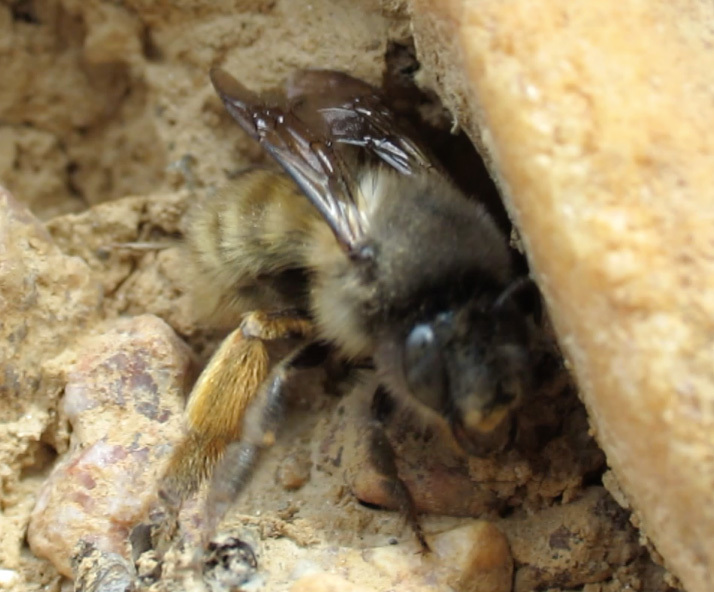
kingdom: Animalia
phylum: Arthropoda
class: Insecta
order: Hymenoptera
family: Apidae
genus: Anthophora
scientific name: Anthophora villosula
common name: Asian shaggy digger
